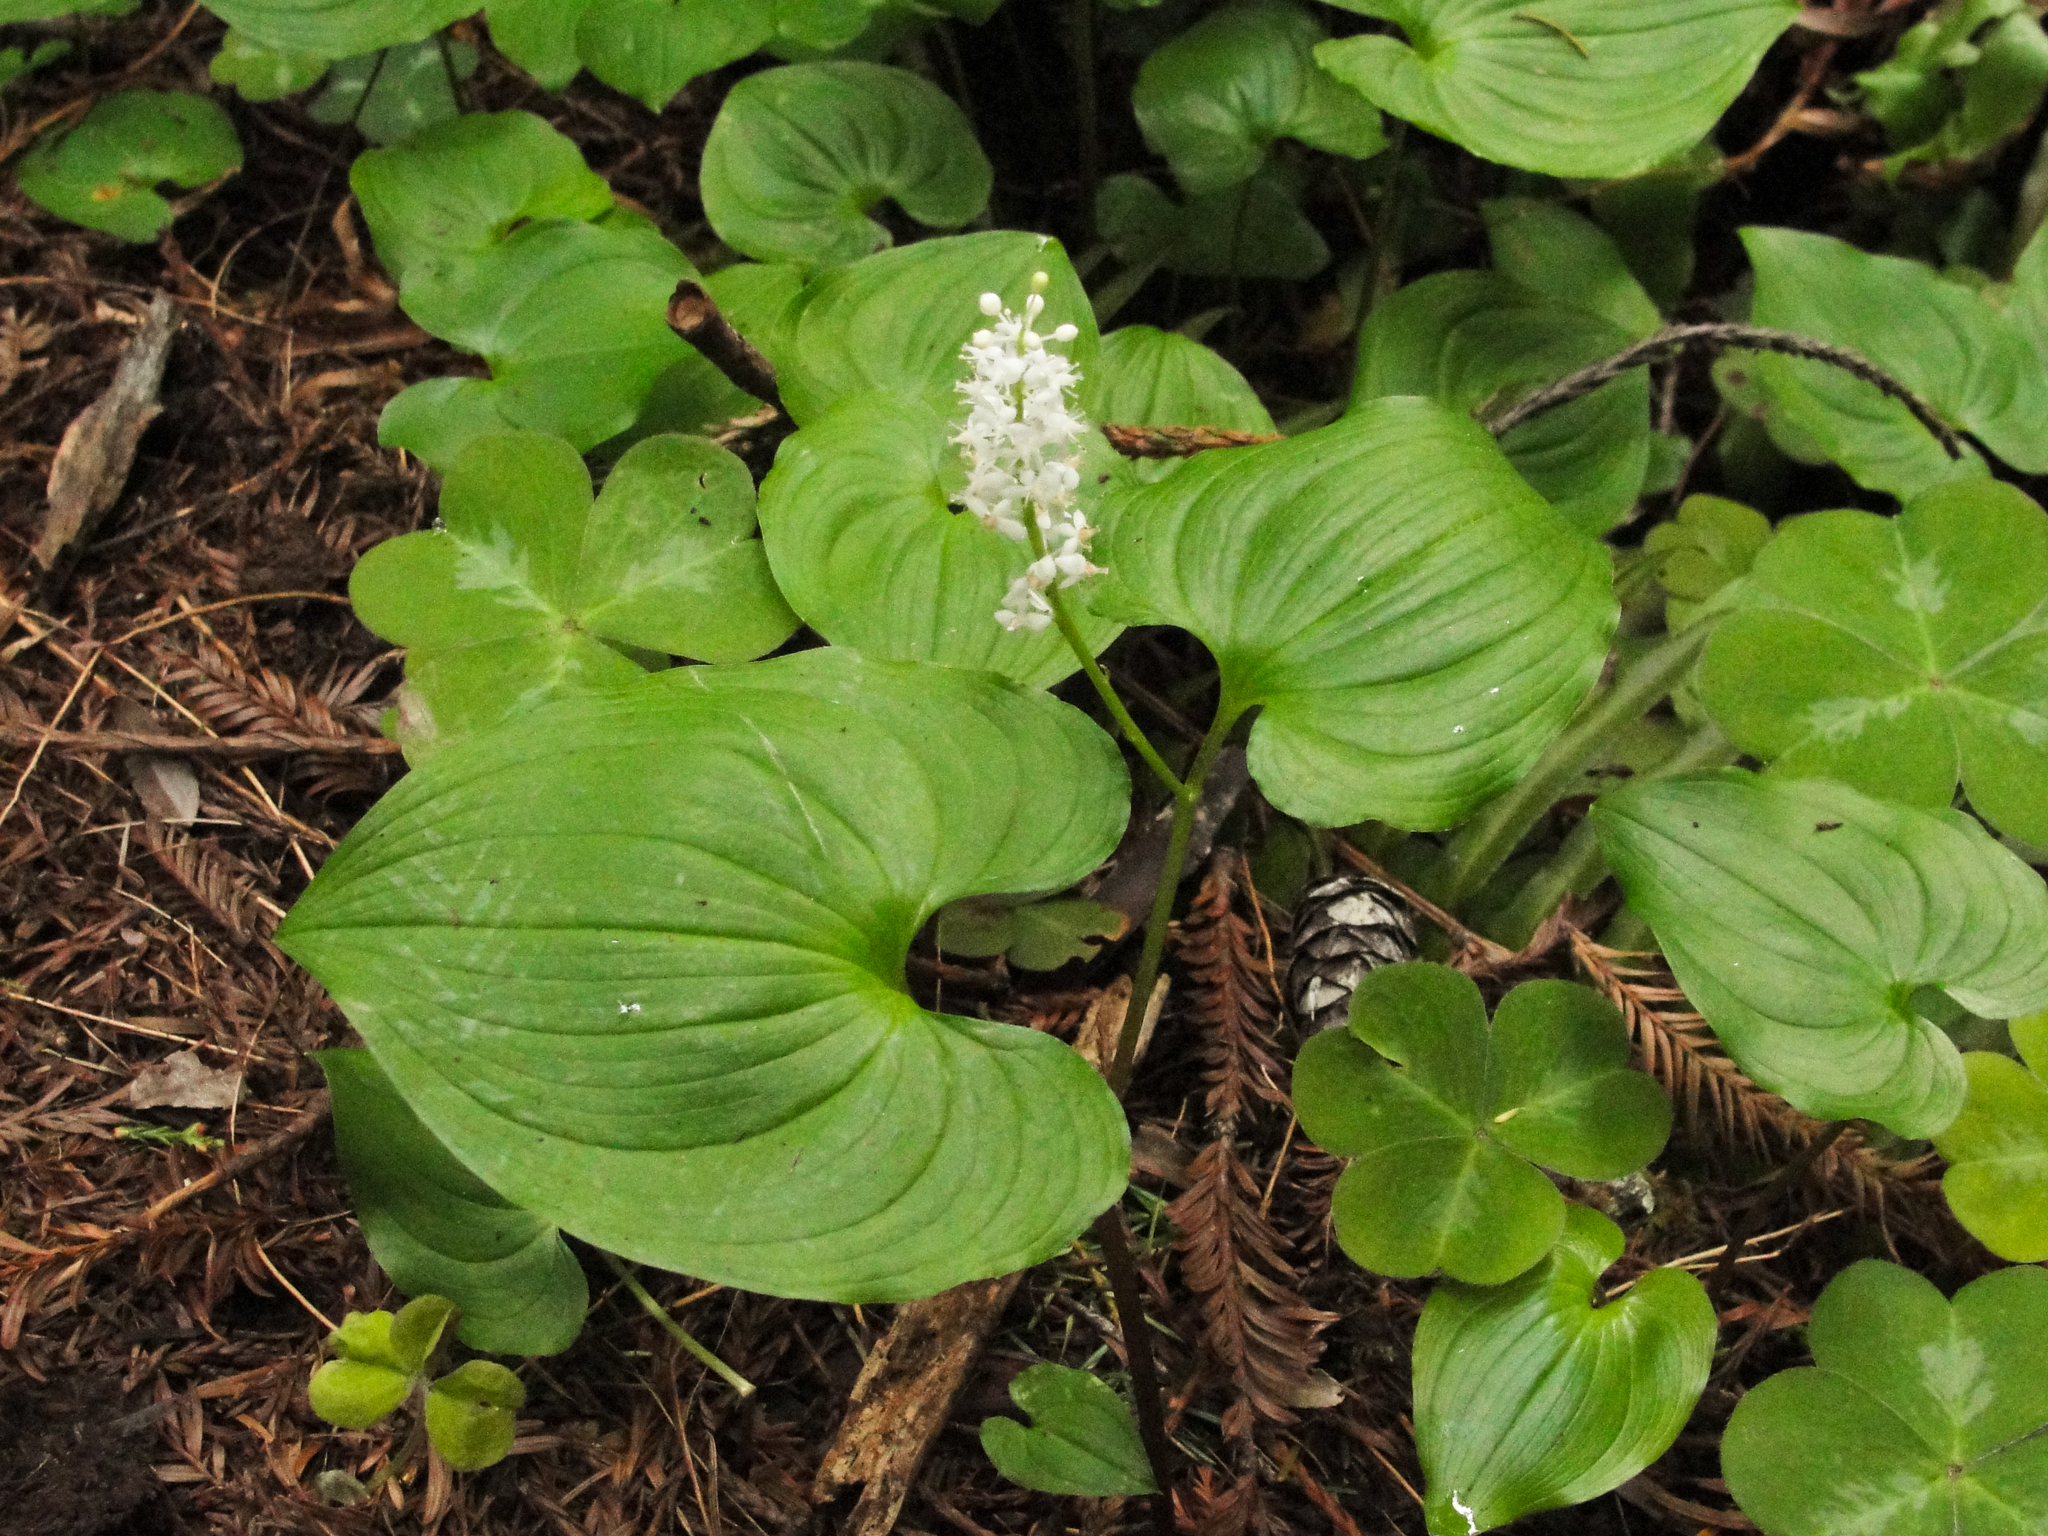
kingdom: Plantae
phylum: Tracheophyta
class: Liliopsida
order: Asparagales
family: Asparagaceae
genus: Maianthemum
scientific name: Maianthemum dilatatum
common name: False lily-of-the-valley
